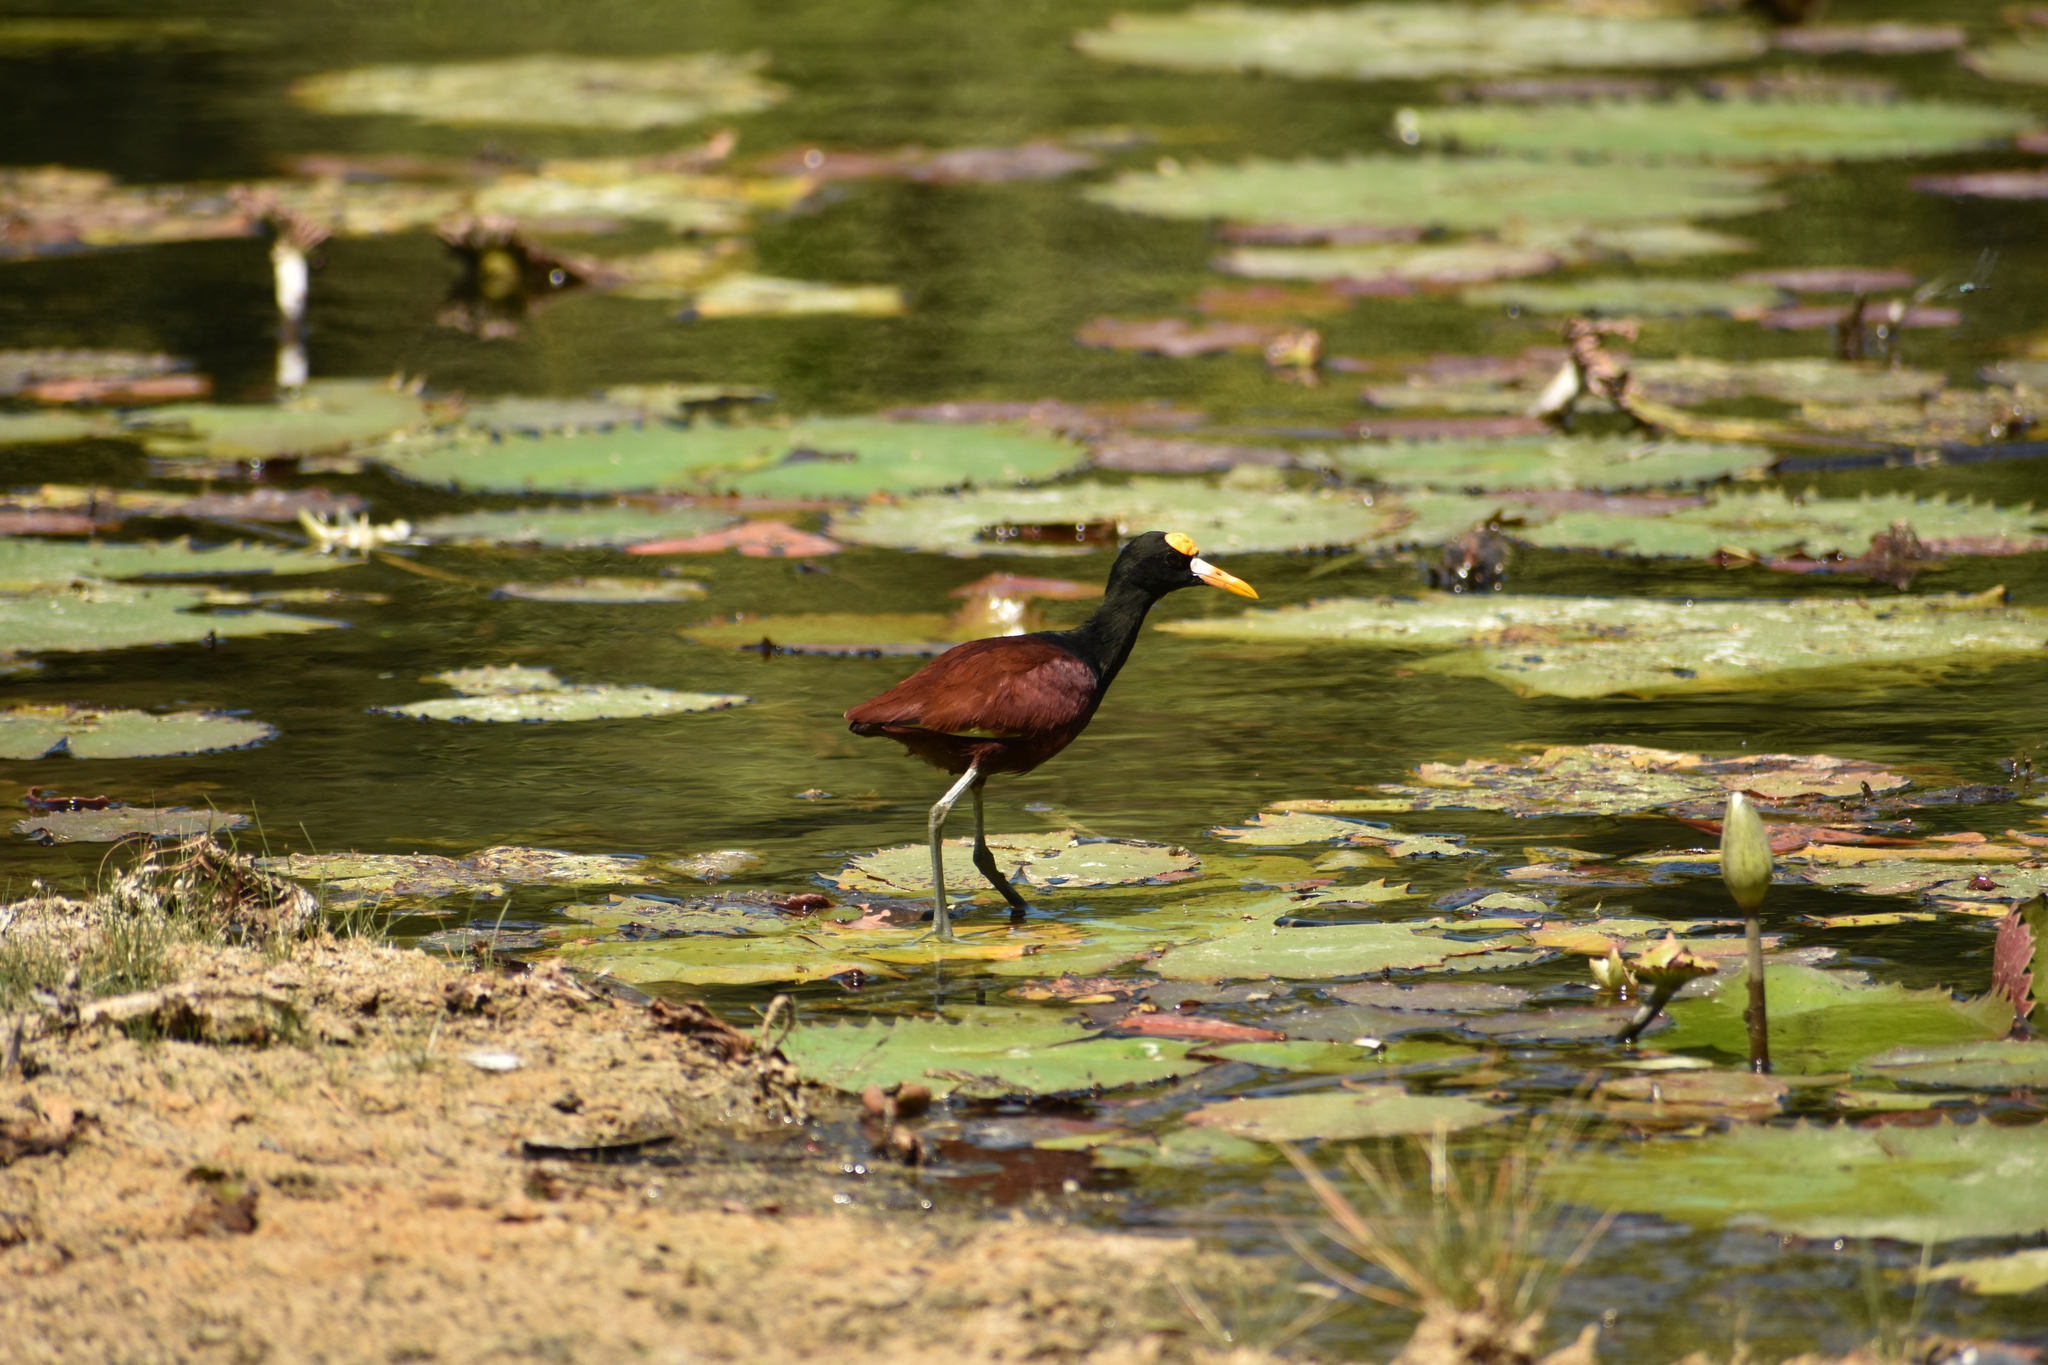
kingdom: Animalia
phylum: Chordata
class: Aves
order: Charadriiformes
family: Jacanidae
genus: Jacana
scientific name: Jacana spinosa
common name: Northern jacana
